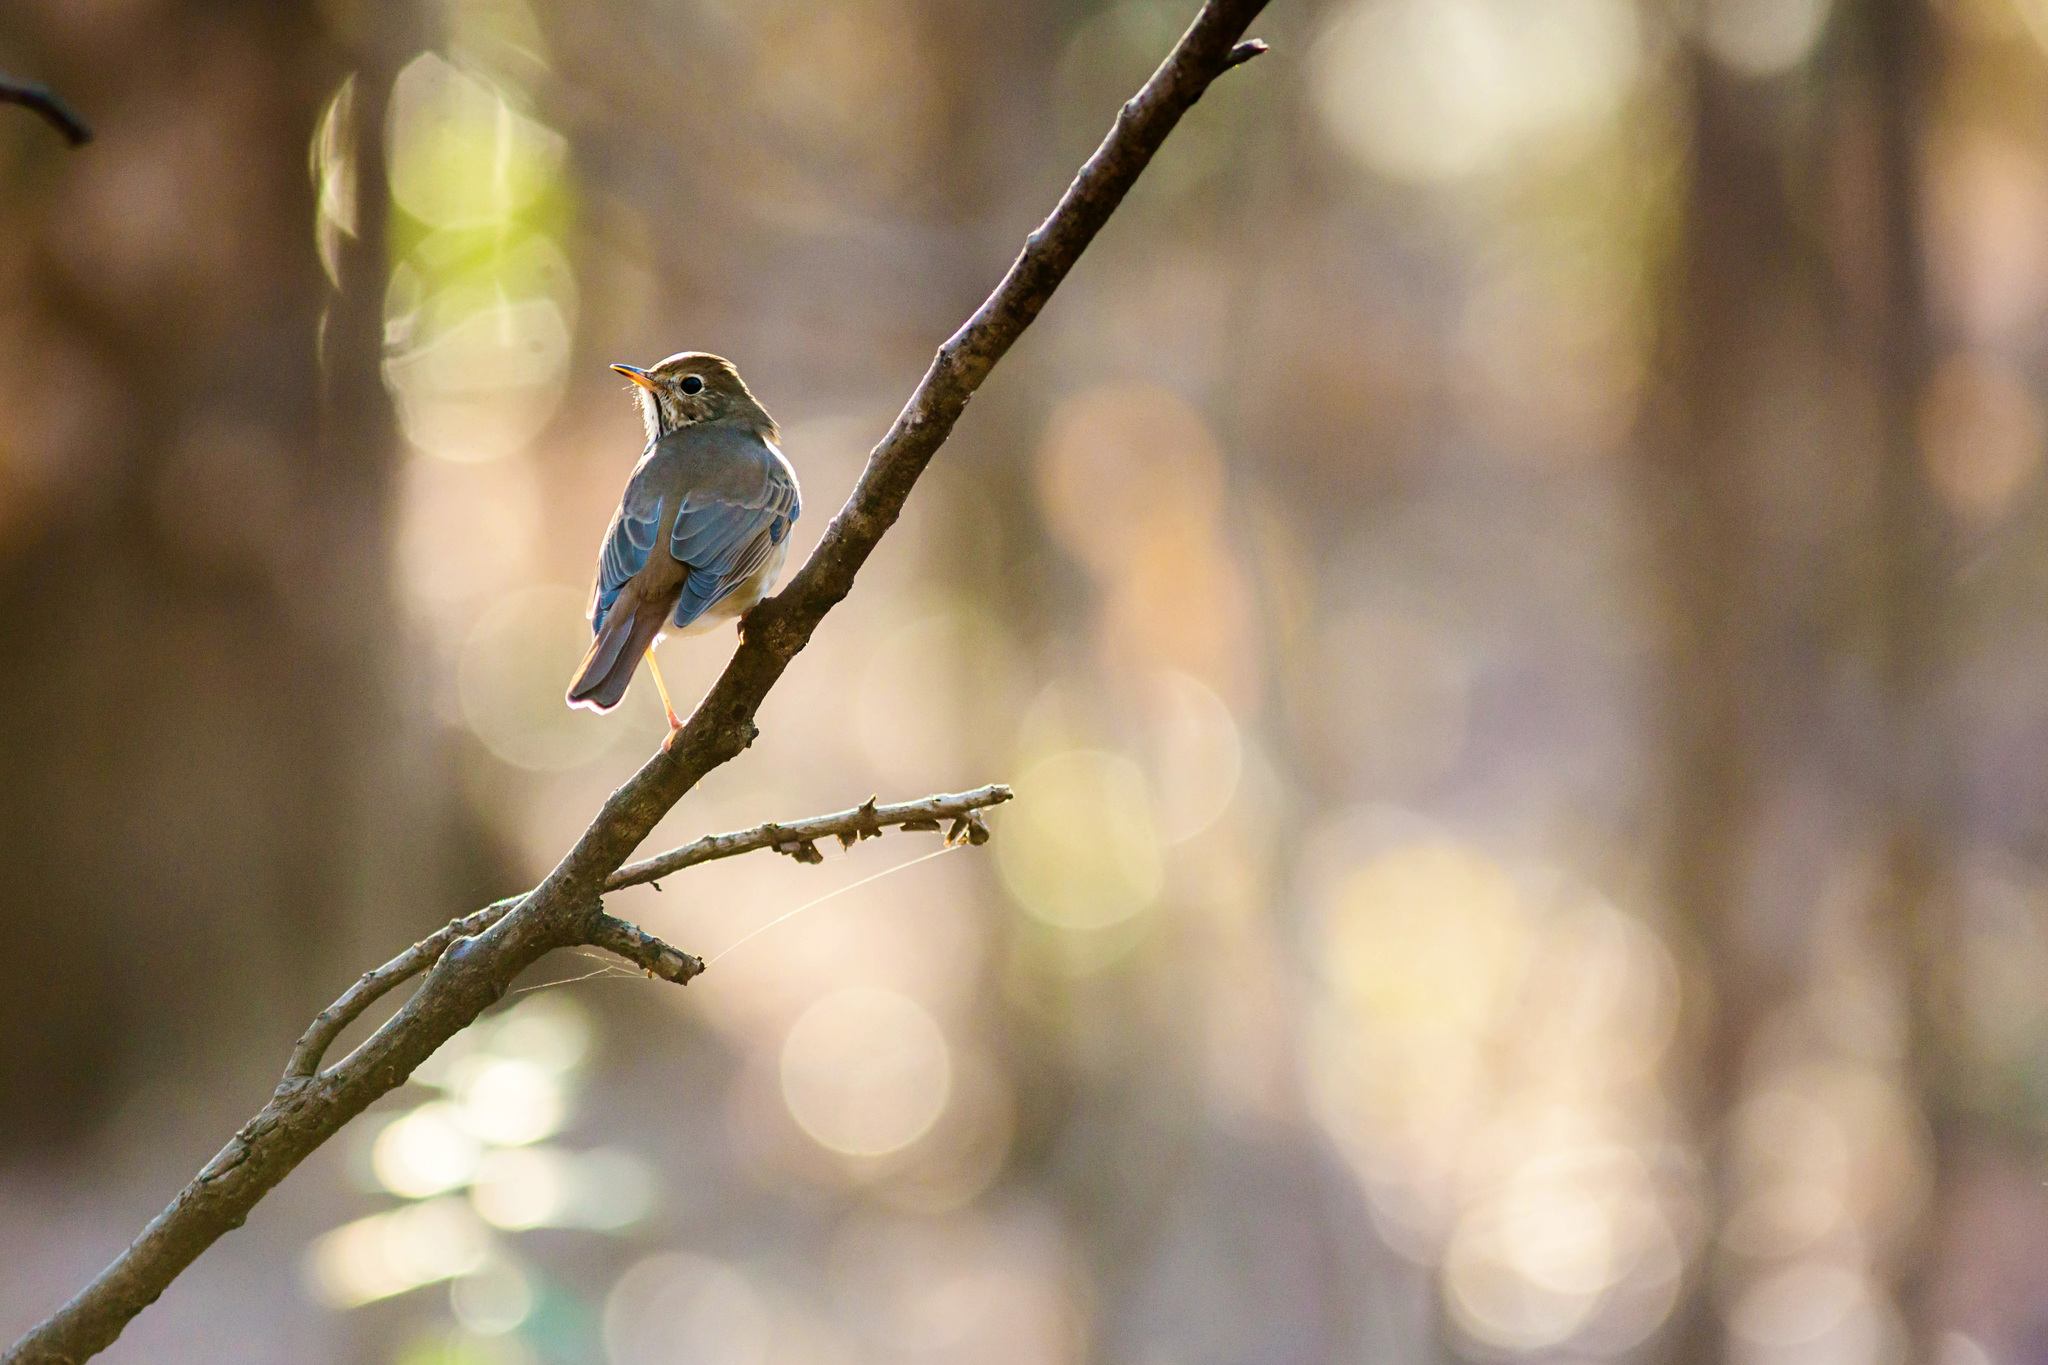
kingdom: Animalia
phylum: Chordata
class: Aves
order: Passeriformes
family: Turdidae
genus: Catharus
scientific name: Catharus guttatus
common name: Hermit thrush
